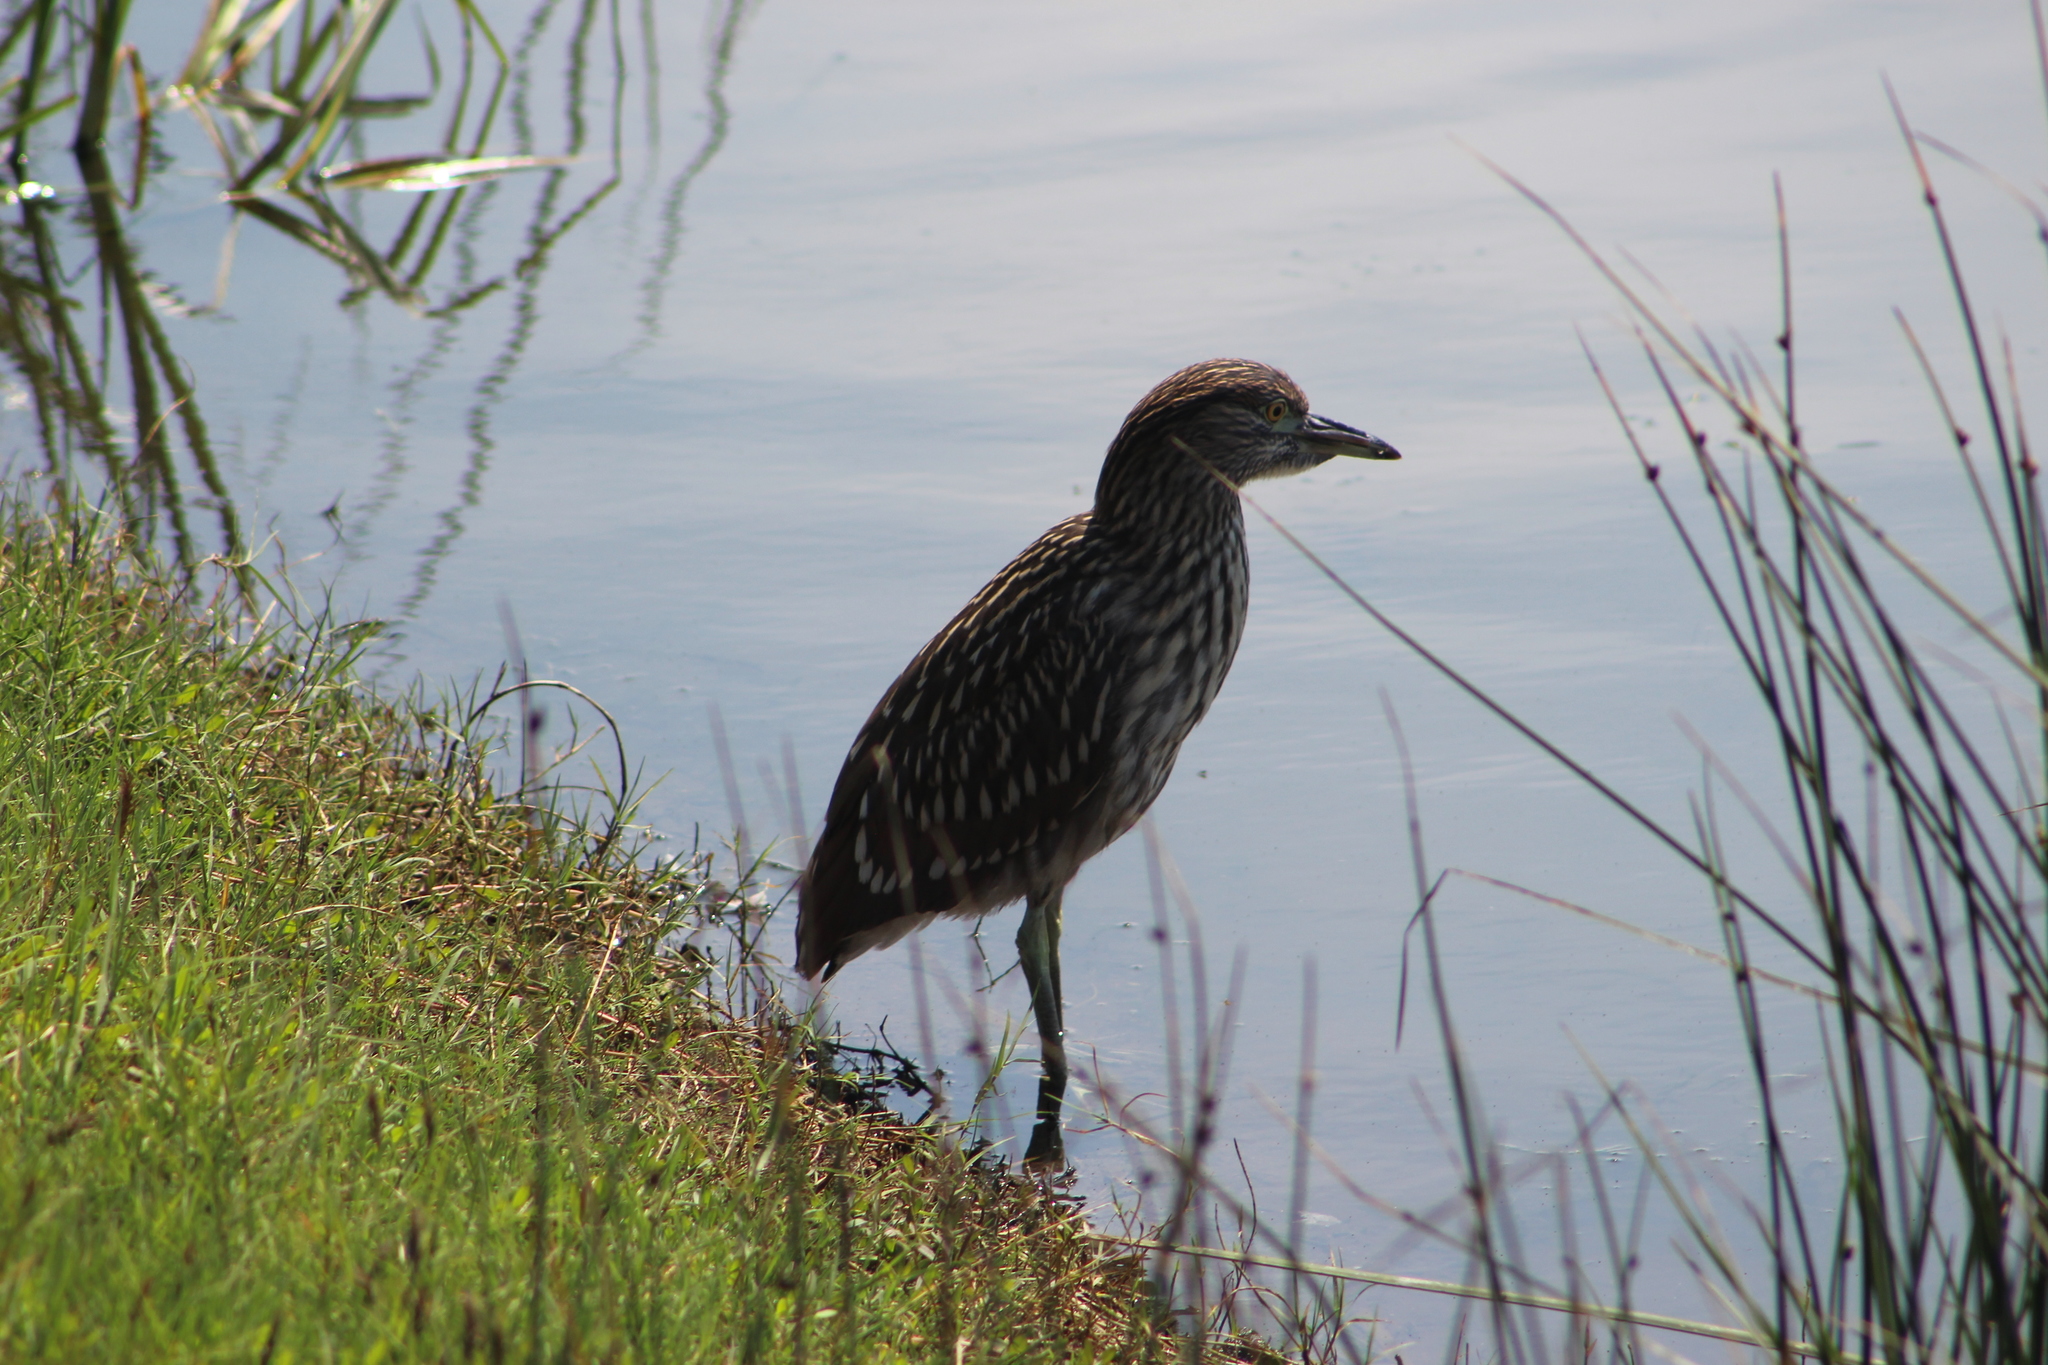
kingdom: Animalia
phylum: Chordata
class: Aves
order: Pelecaniformes
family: Ardeidae
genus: Nycticorax
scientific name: Nycticorax nycticorax
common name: Black-crowned night heron
